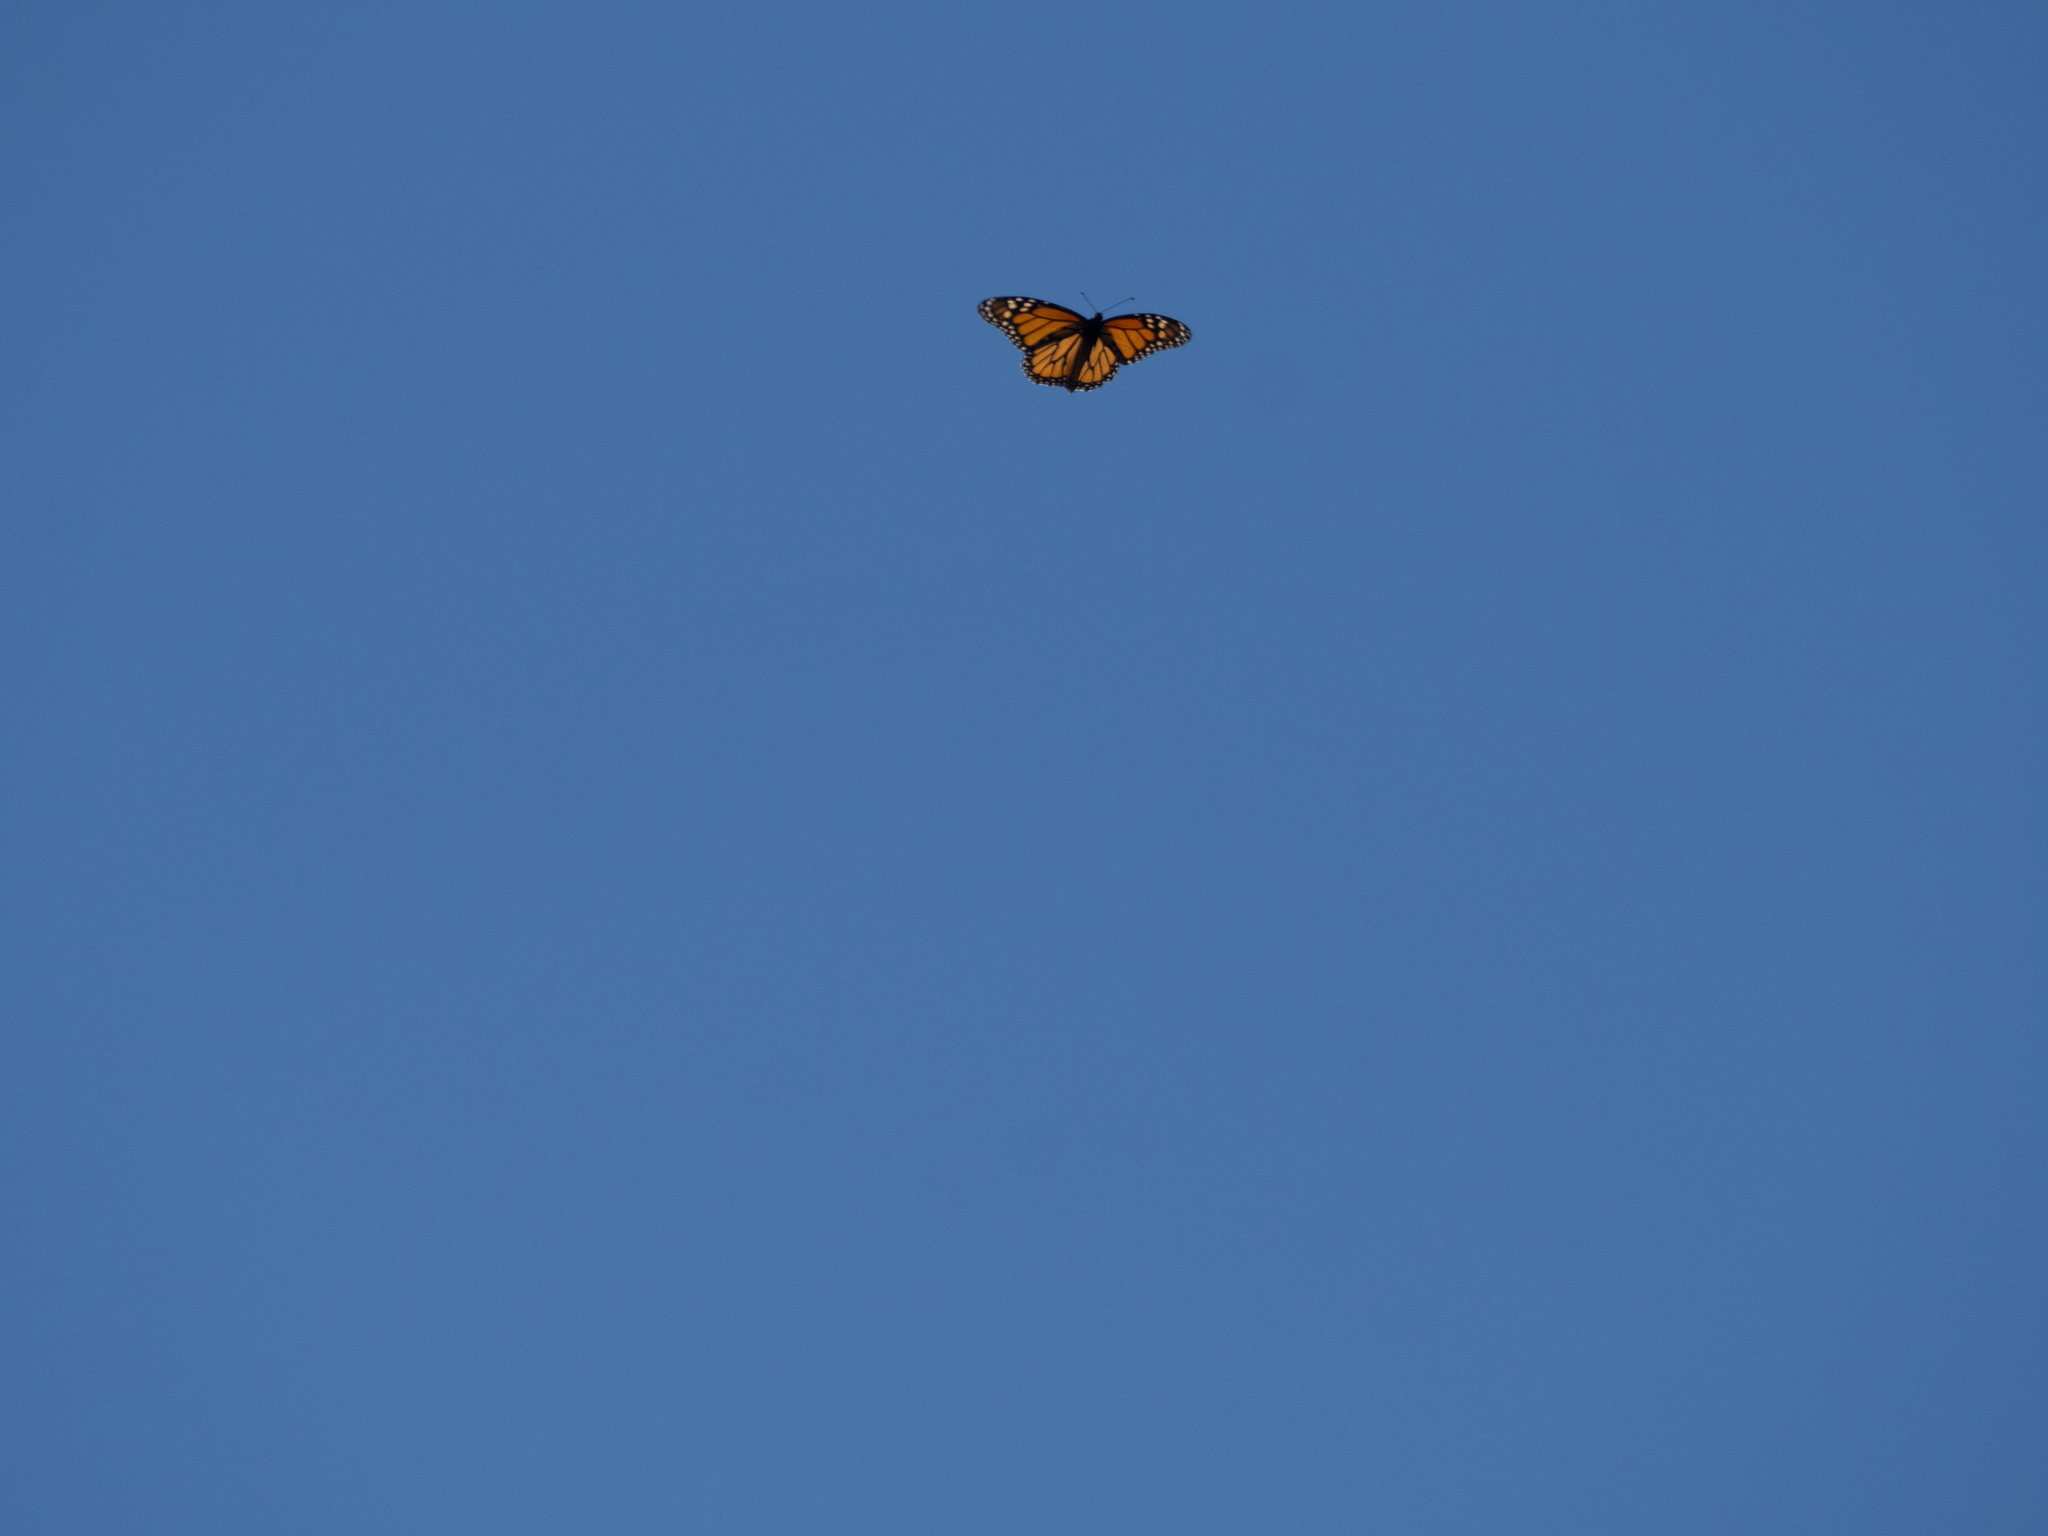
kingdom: Animalia
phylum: Arthropoda
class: Insecta
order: Lepidoptera
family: Nymphalidae
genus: Danaus
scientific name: Danaus plexippus
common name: Monarch
